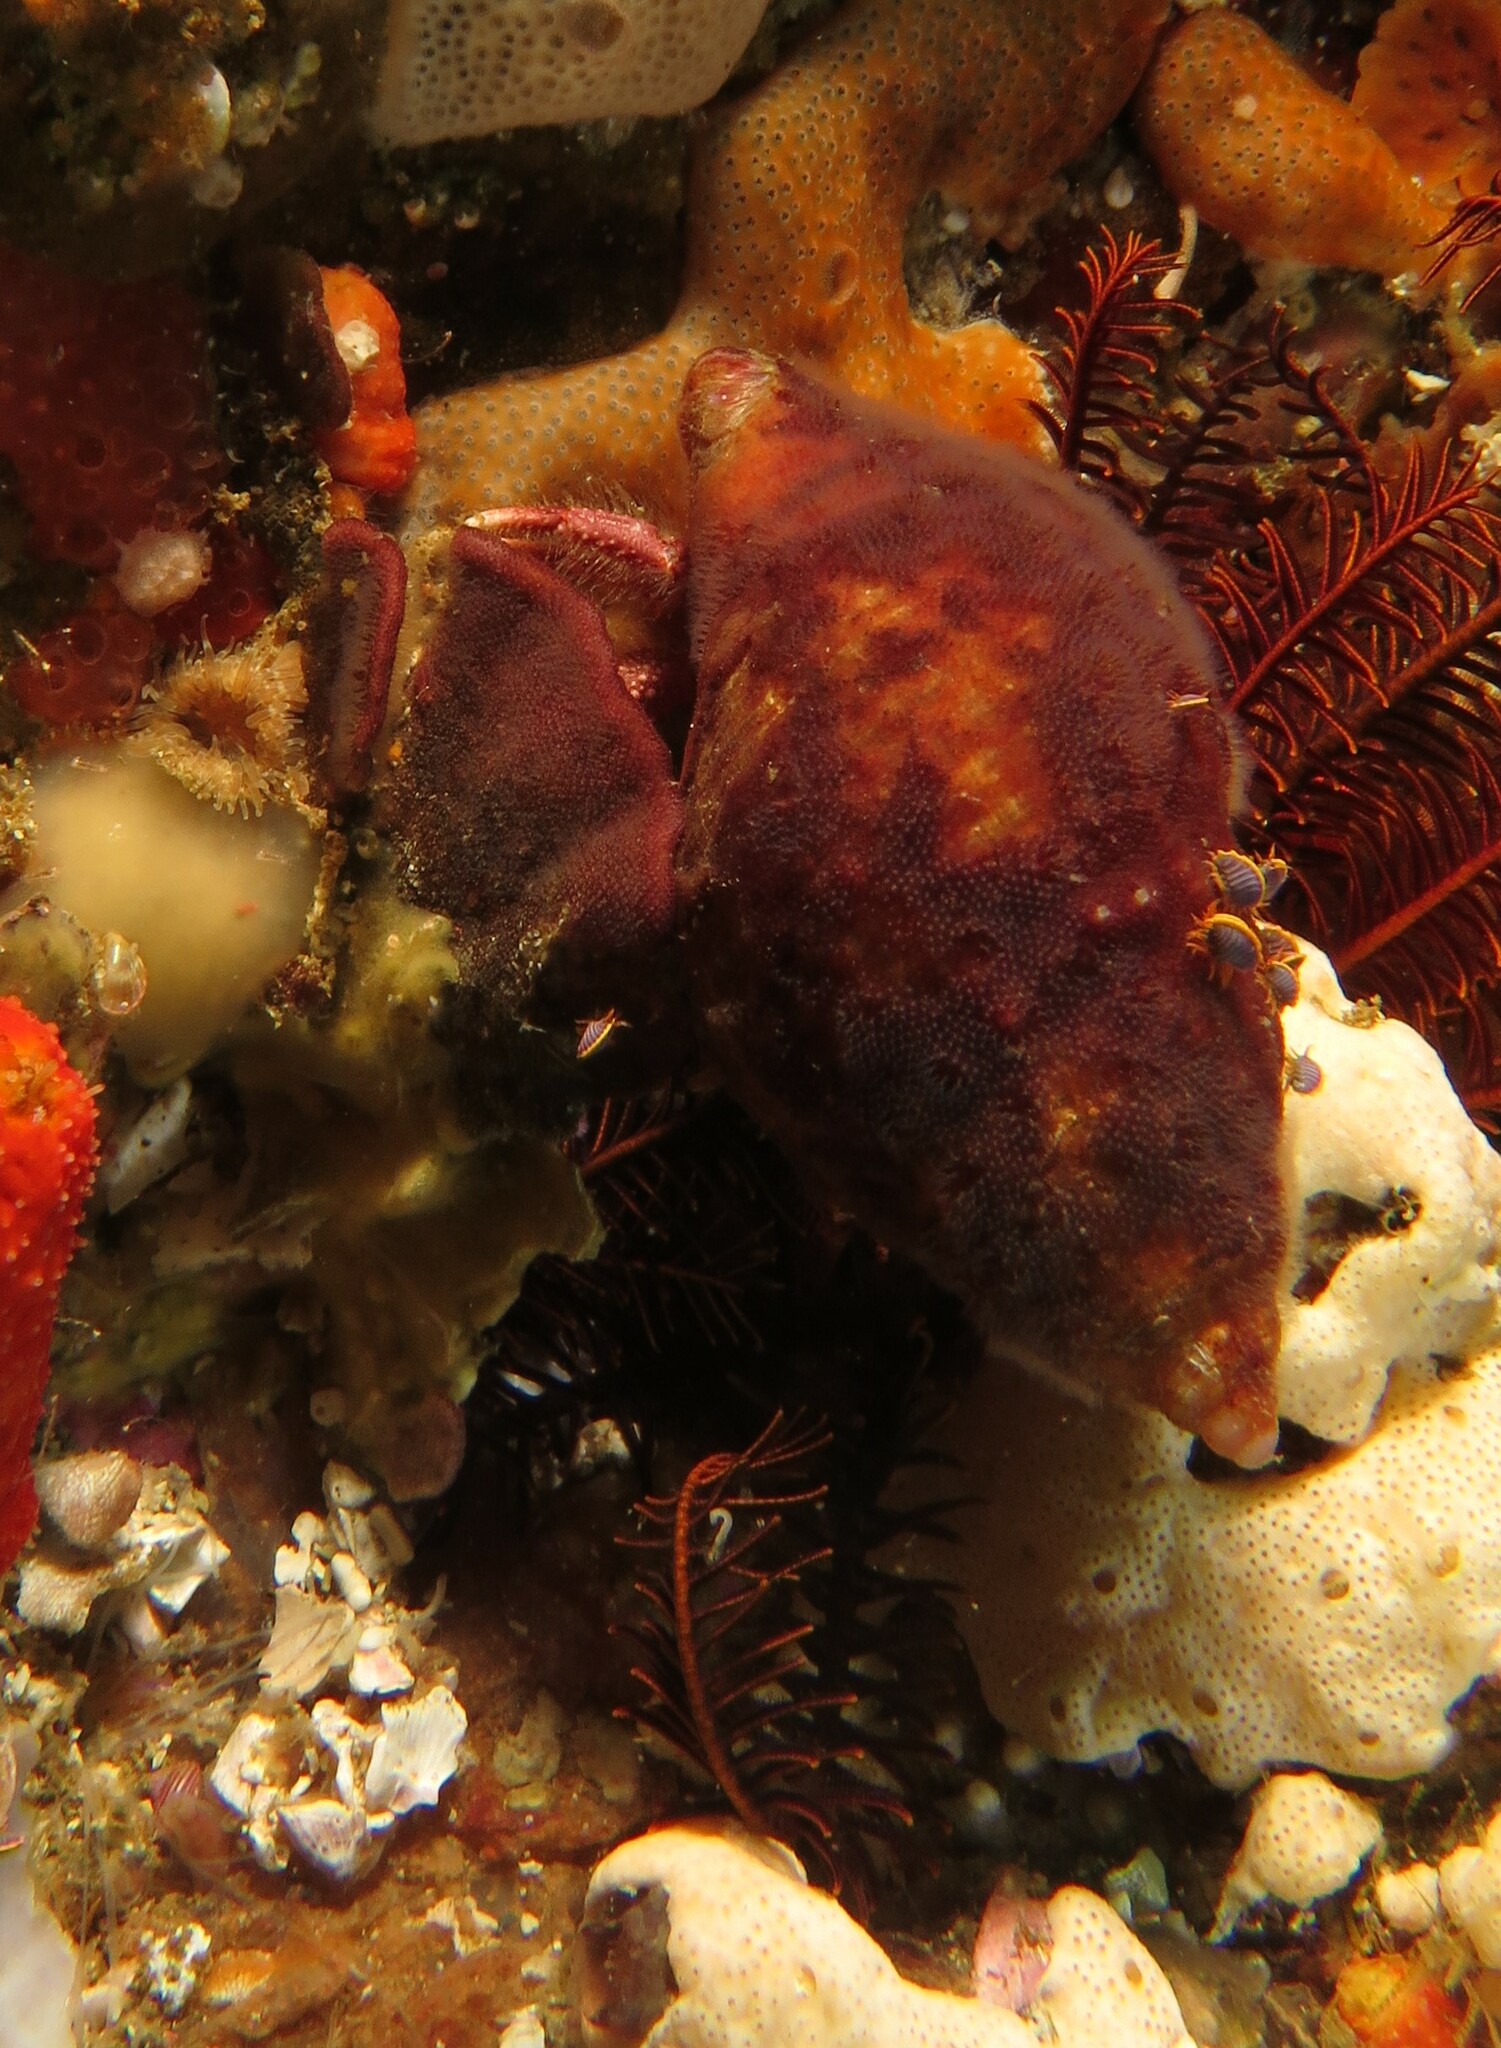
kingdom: Animalia
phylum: Arthropoda
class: Malacostraca
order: Decapoda
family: Diogenidae
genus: Paguristes
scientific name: Paguristes gamianus
